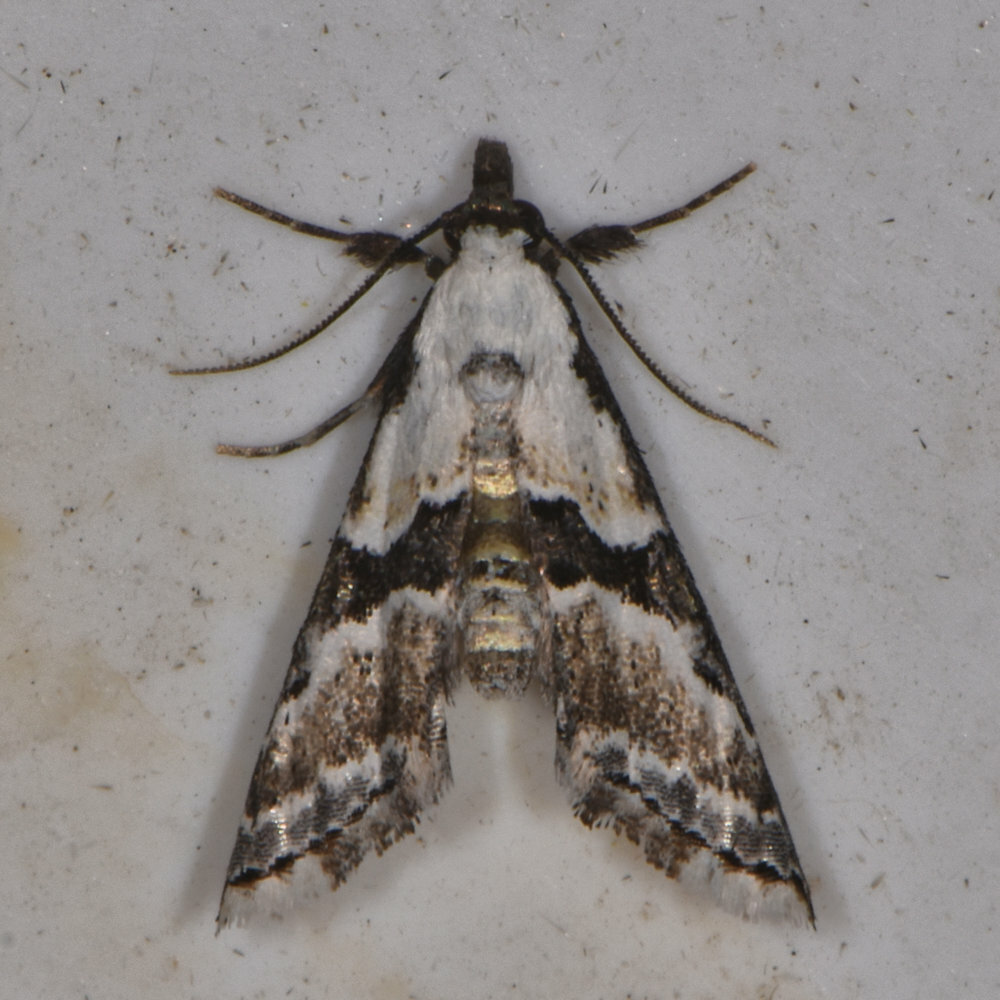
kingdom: Animalia
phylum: Arthropoda
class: Insecta
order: Lepidoptera
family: Noctuidae
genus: Nigetia
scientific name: Nigetia formosalis
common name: Thin-winged owlet
